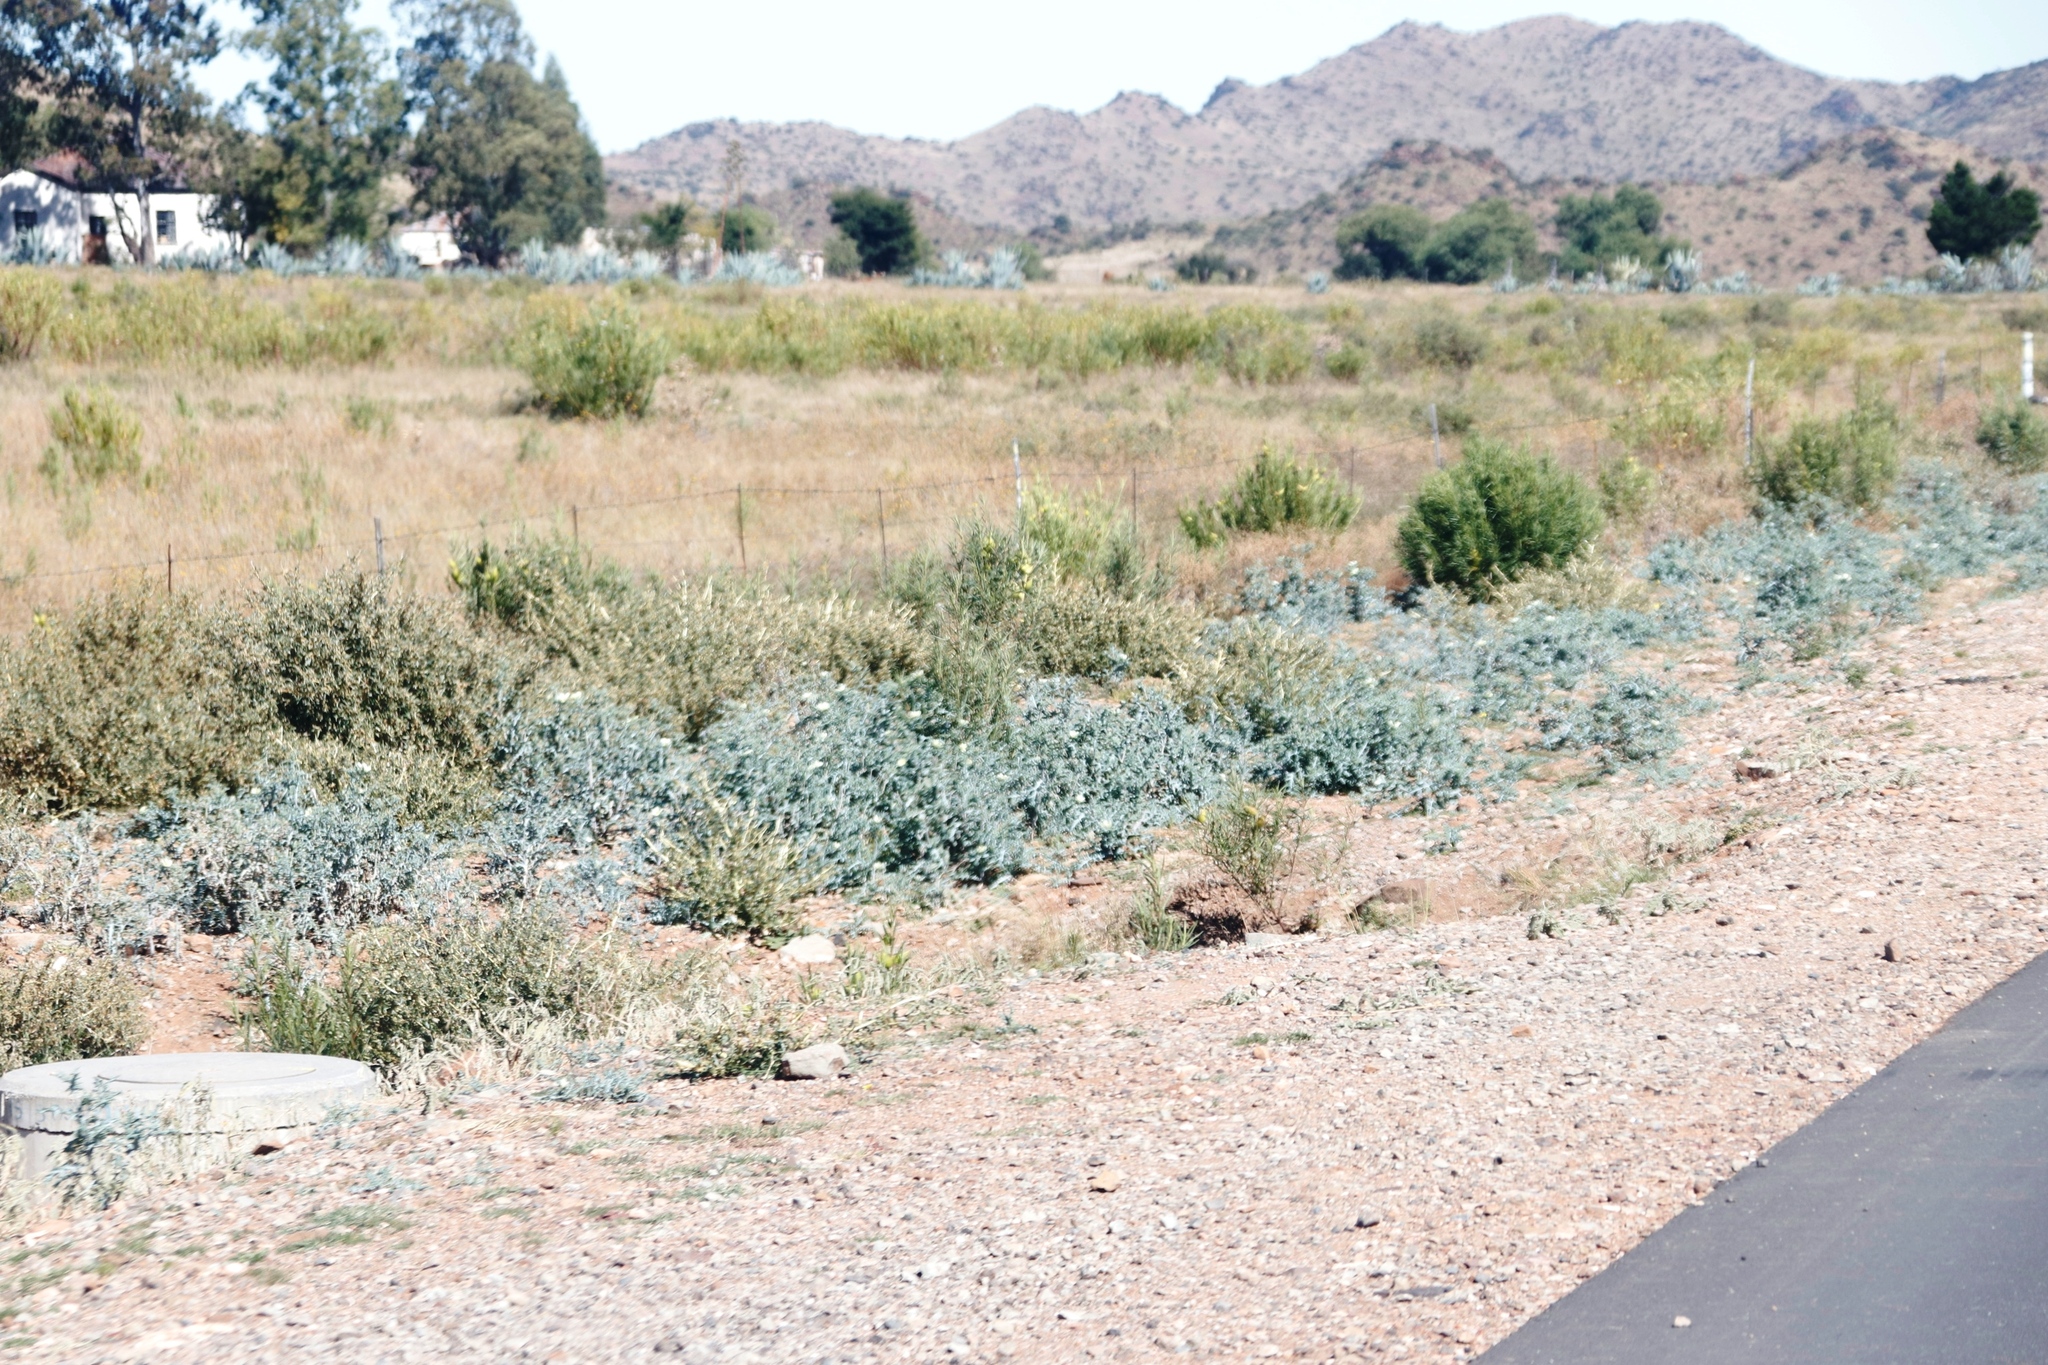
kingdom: Plantae
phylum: Tracheophyta
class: Magnoliopsida
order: Ranunculales
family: Papaveraceae
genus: Argemone
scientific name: Argemone ochroleuca
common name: White-flower mexican-poppy
